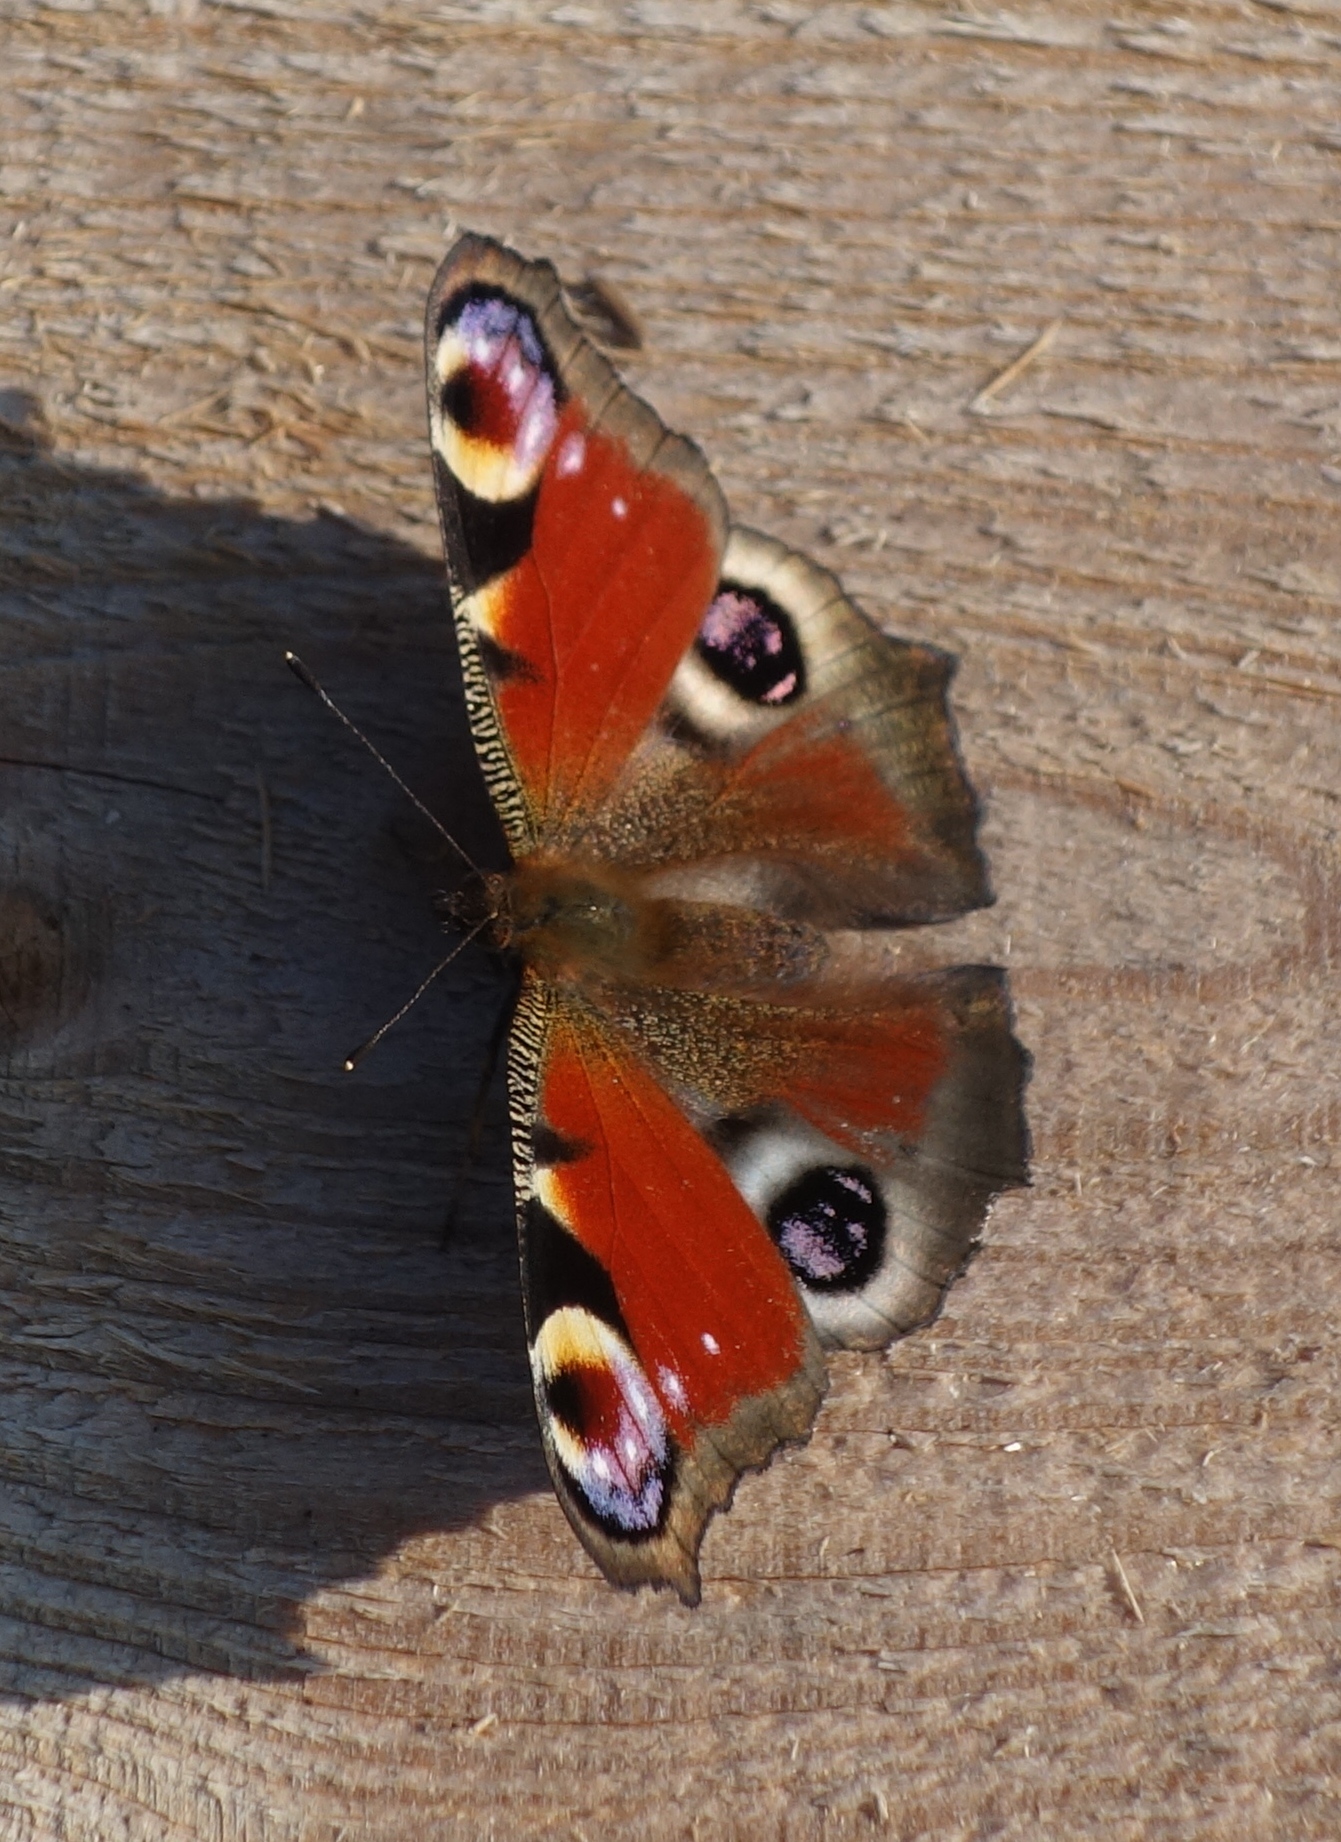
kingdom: Animalia
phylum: Arthropoda
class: Insecta
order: Lepidoptera
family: Nymphalidae
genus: Aglais
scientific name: Aglais io
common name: Peacock
